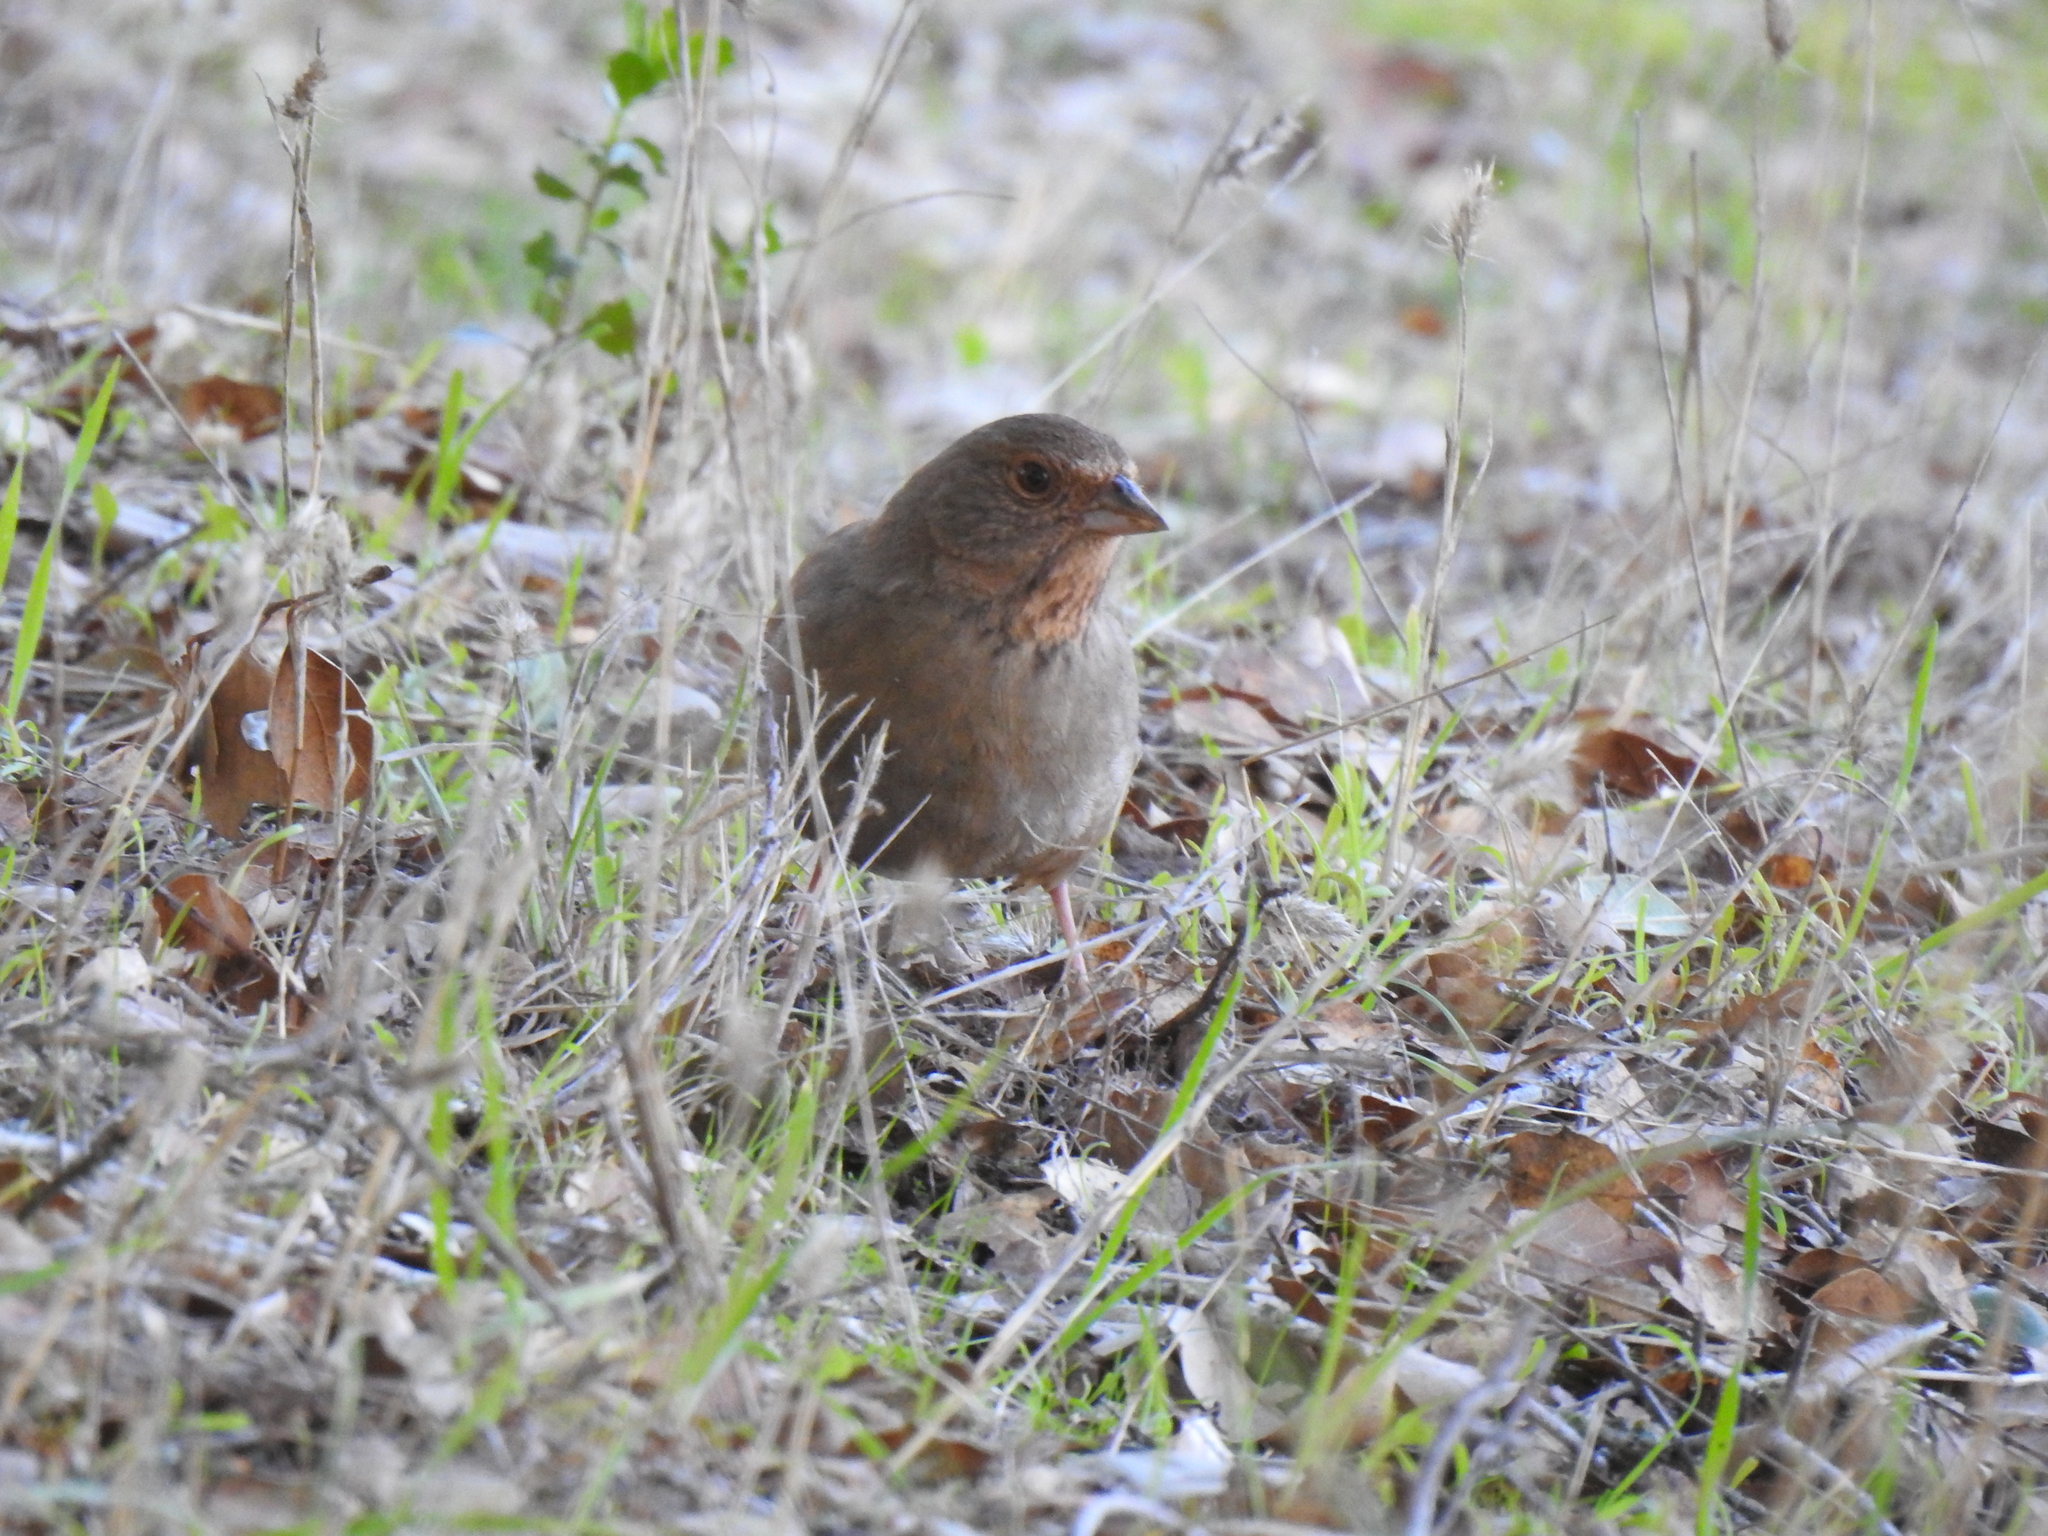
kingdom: Animalia
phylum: Chordata
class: Aves
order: Passeriformes
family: Passerellidae
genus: Melozone
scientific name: Melozone crissalis
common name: California towhee
